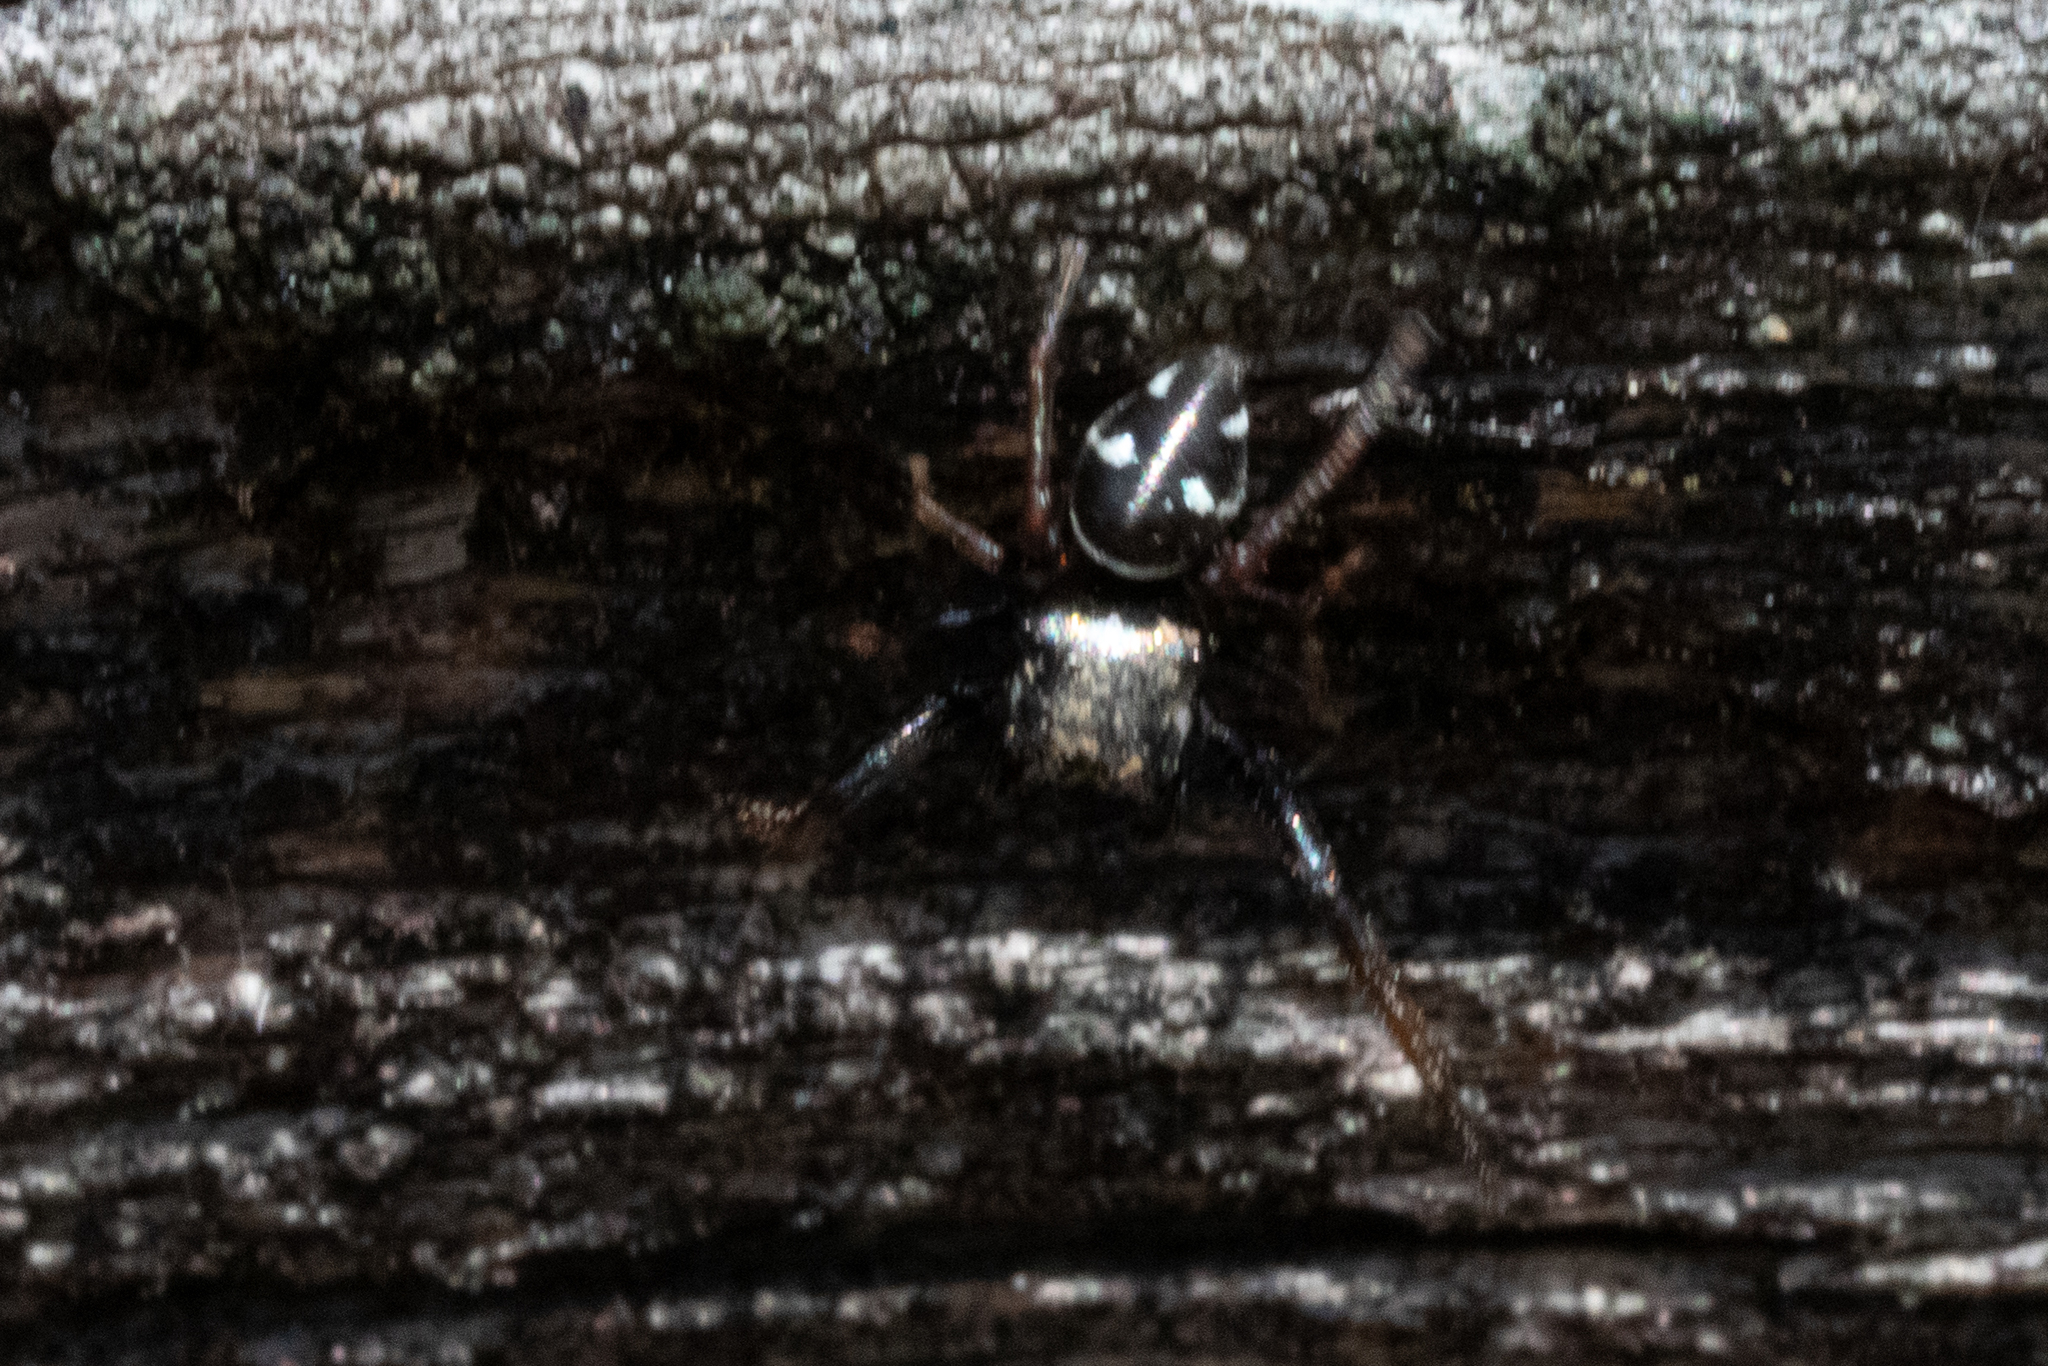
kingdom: Animalia
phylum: Arthropoda
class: Arachnida
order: Araneae
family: Salticidae
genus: Zygoballus
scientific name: Zygoballus sexpunctatus
